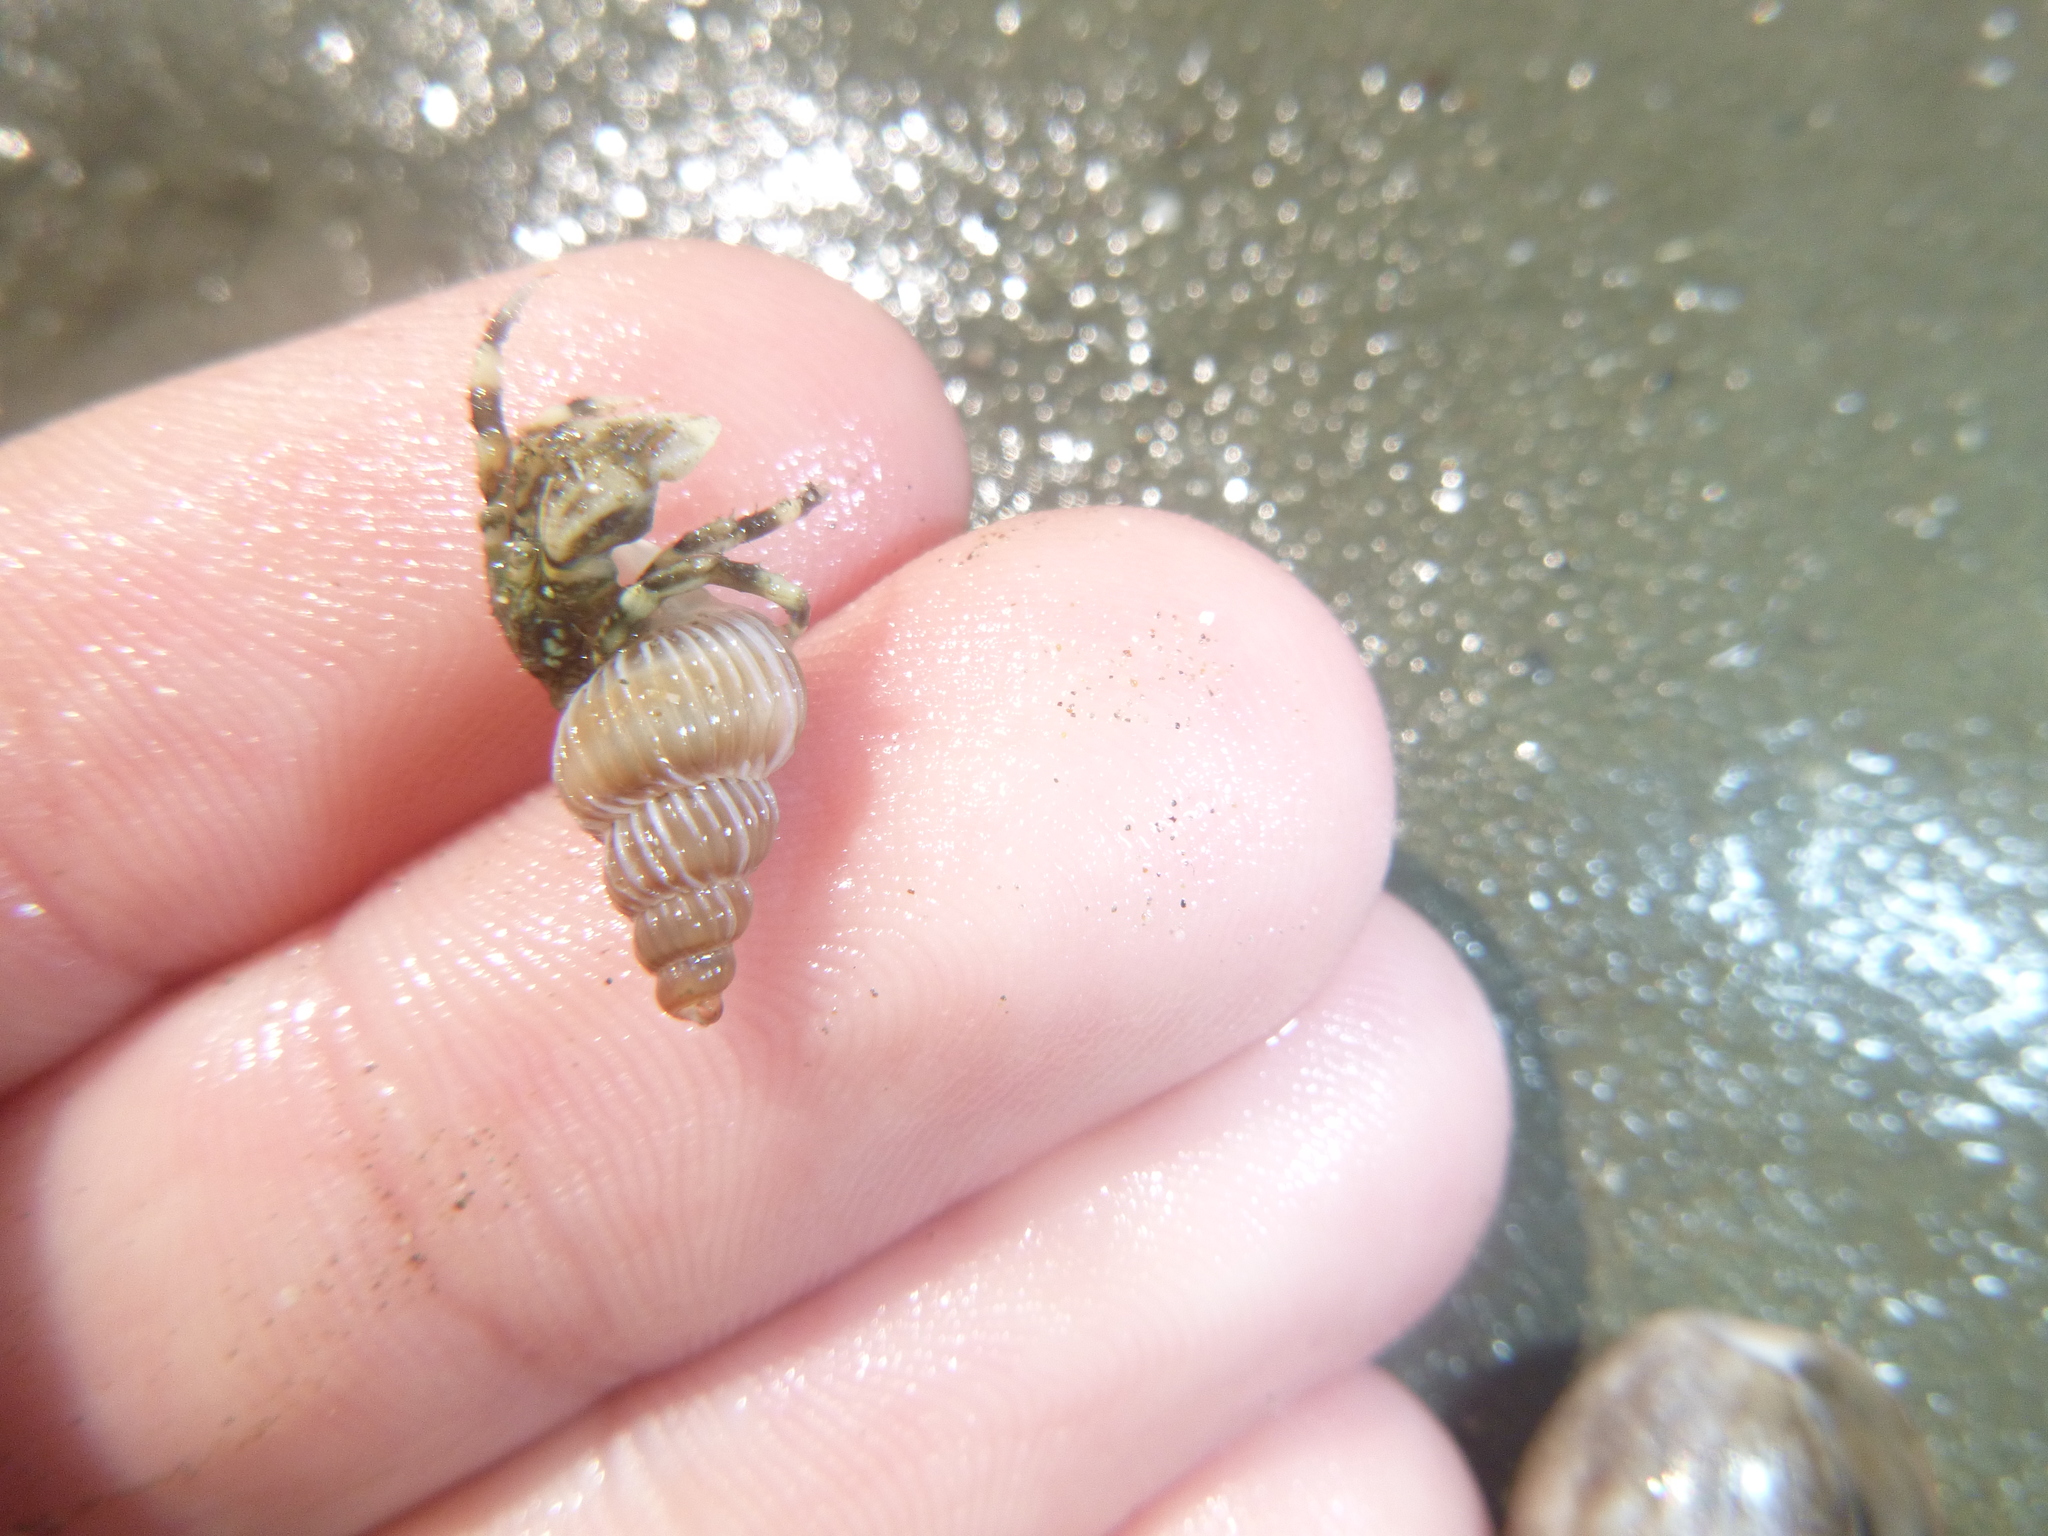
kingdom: Animalia
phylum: Mollusca
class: Gastropoda
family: Epitoniidae
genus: Epitonium
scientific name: Epitonium tenellum
